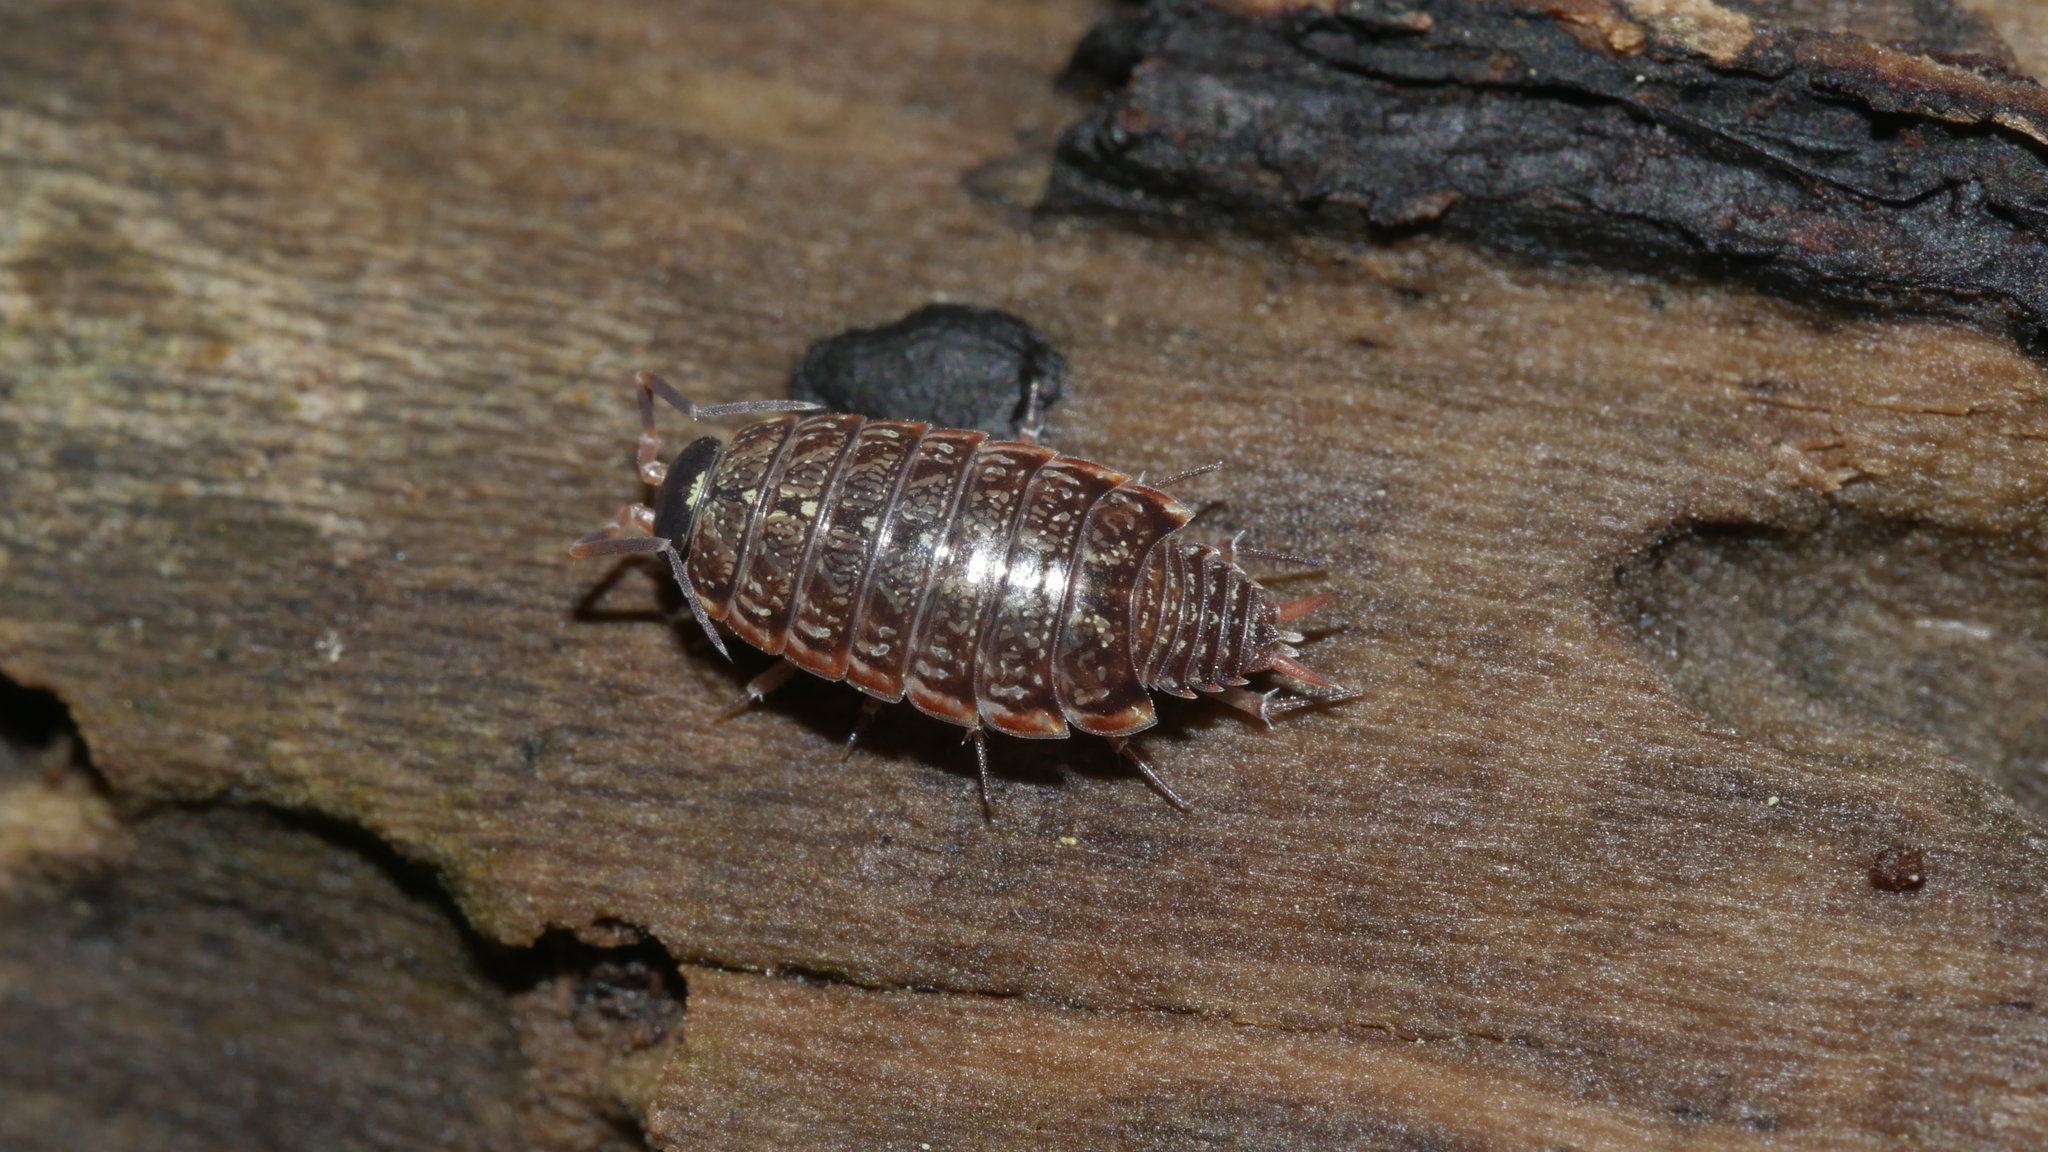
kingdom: Animalia
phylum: Arthropoda
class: Malacostraca
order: Isopoda
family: Philosciidae
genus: Philoscia
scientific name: Philoscia muscorum
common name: Common striped woodlouse
